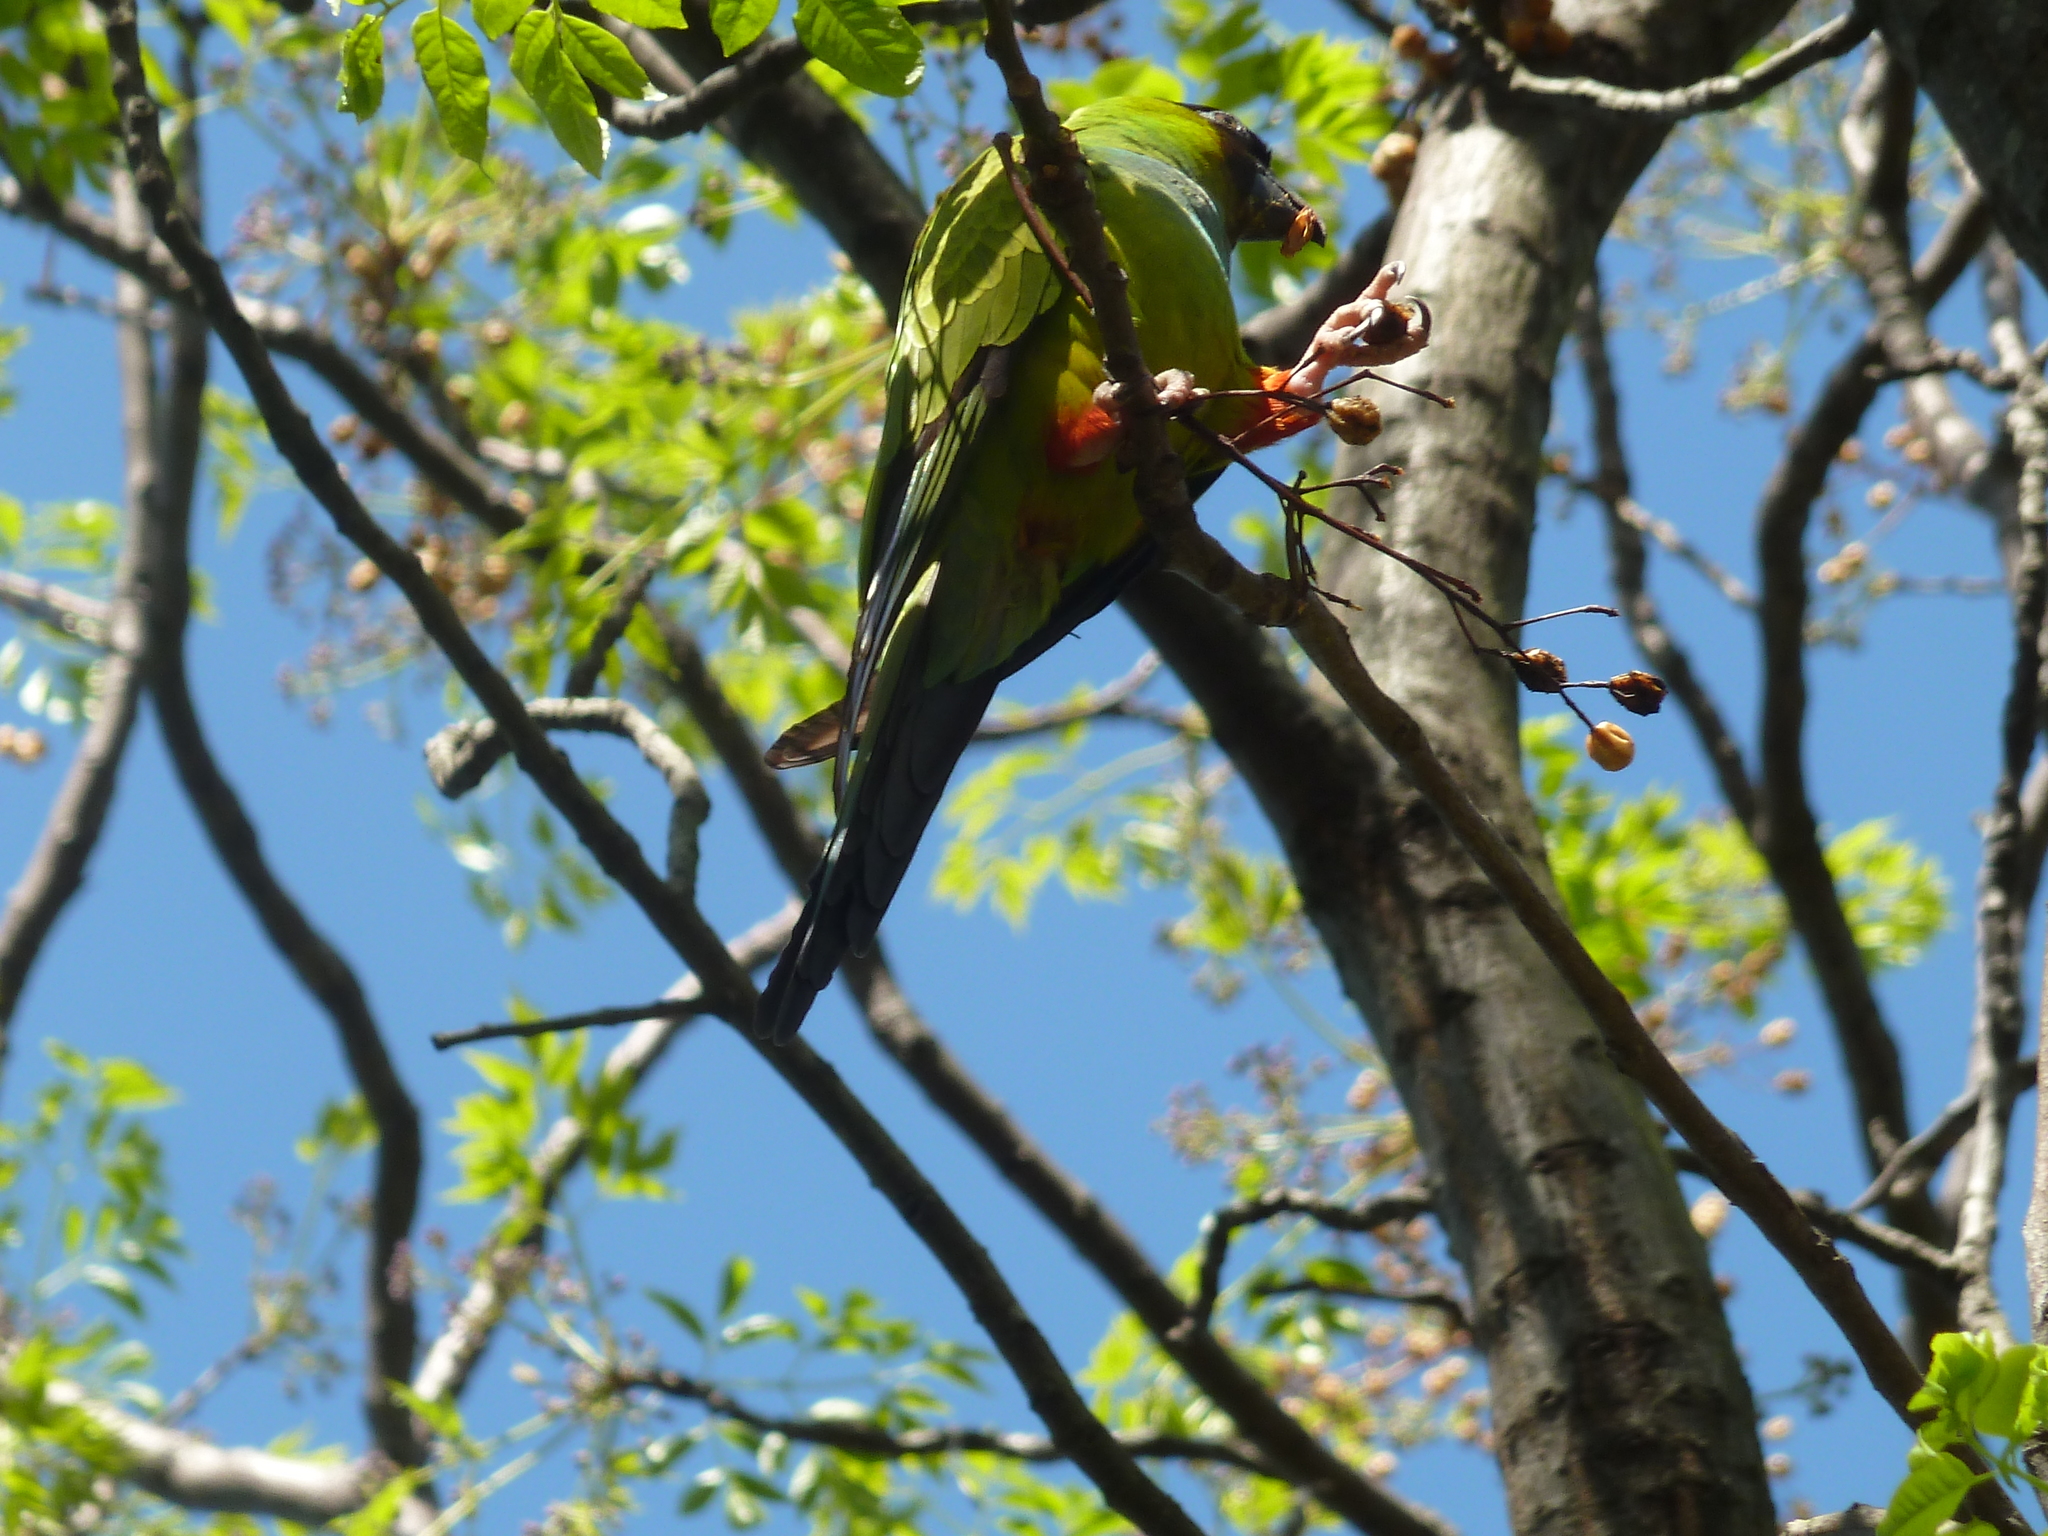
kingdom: Animalia
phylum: Chordata
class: Aves
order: Psittaciformes
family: Psittacidae
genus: Nandayus
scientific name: Nandayus nenday
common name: Nanday parakeet
